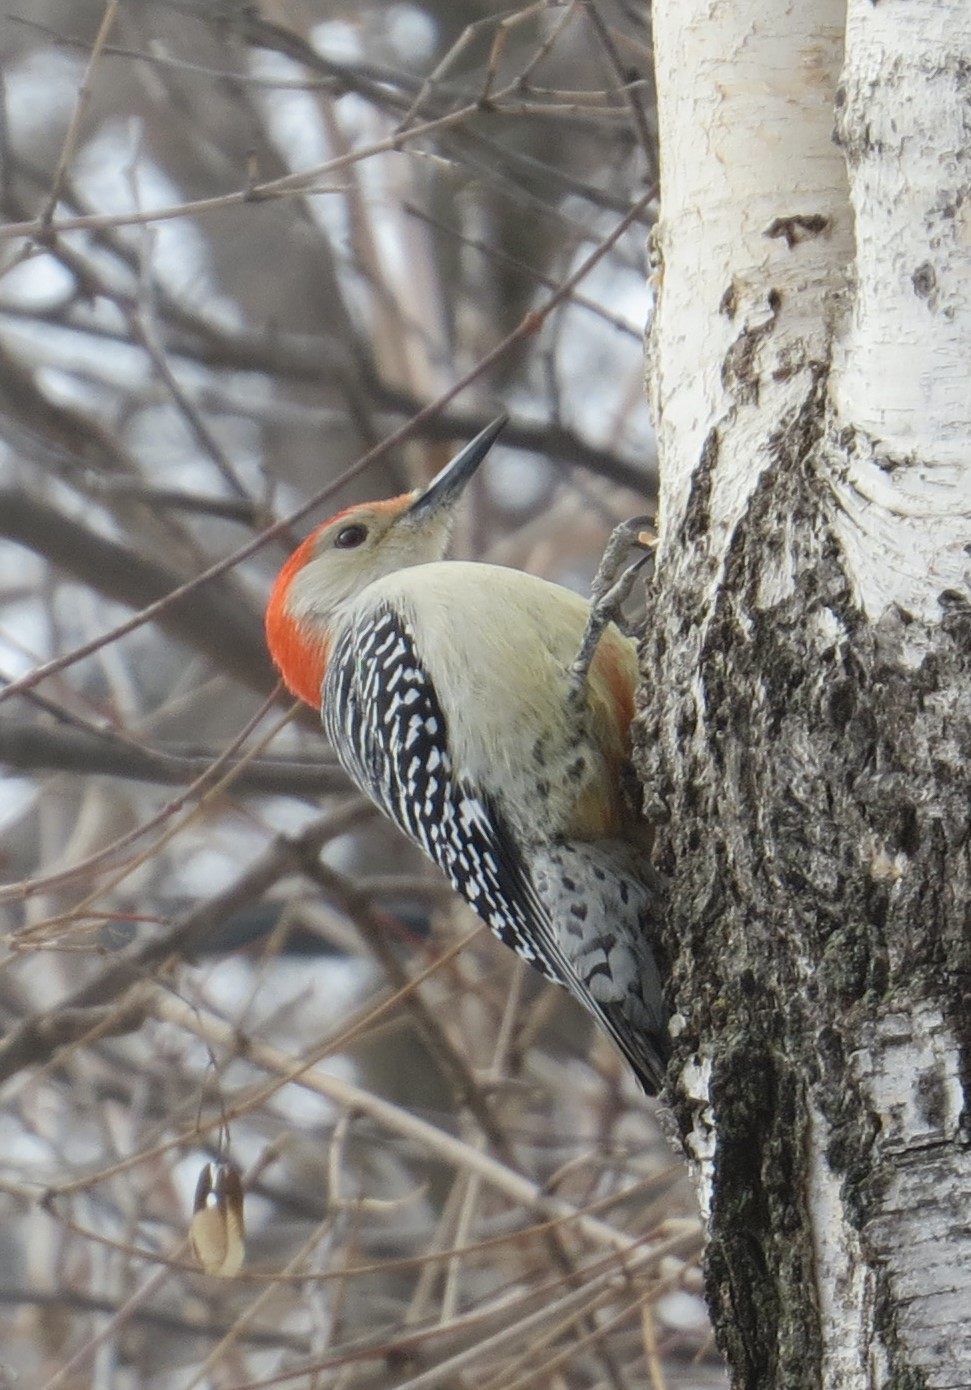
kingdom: Animalia
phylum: Chordata
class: Aves
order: Piciformes
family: Picidae
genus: Melanerpes
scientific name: Melanerpes carolinus
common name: Red-bellied woodpecker
